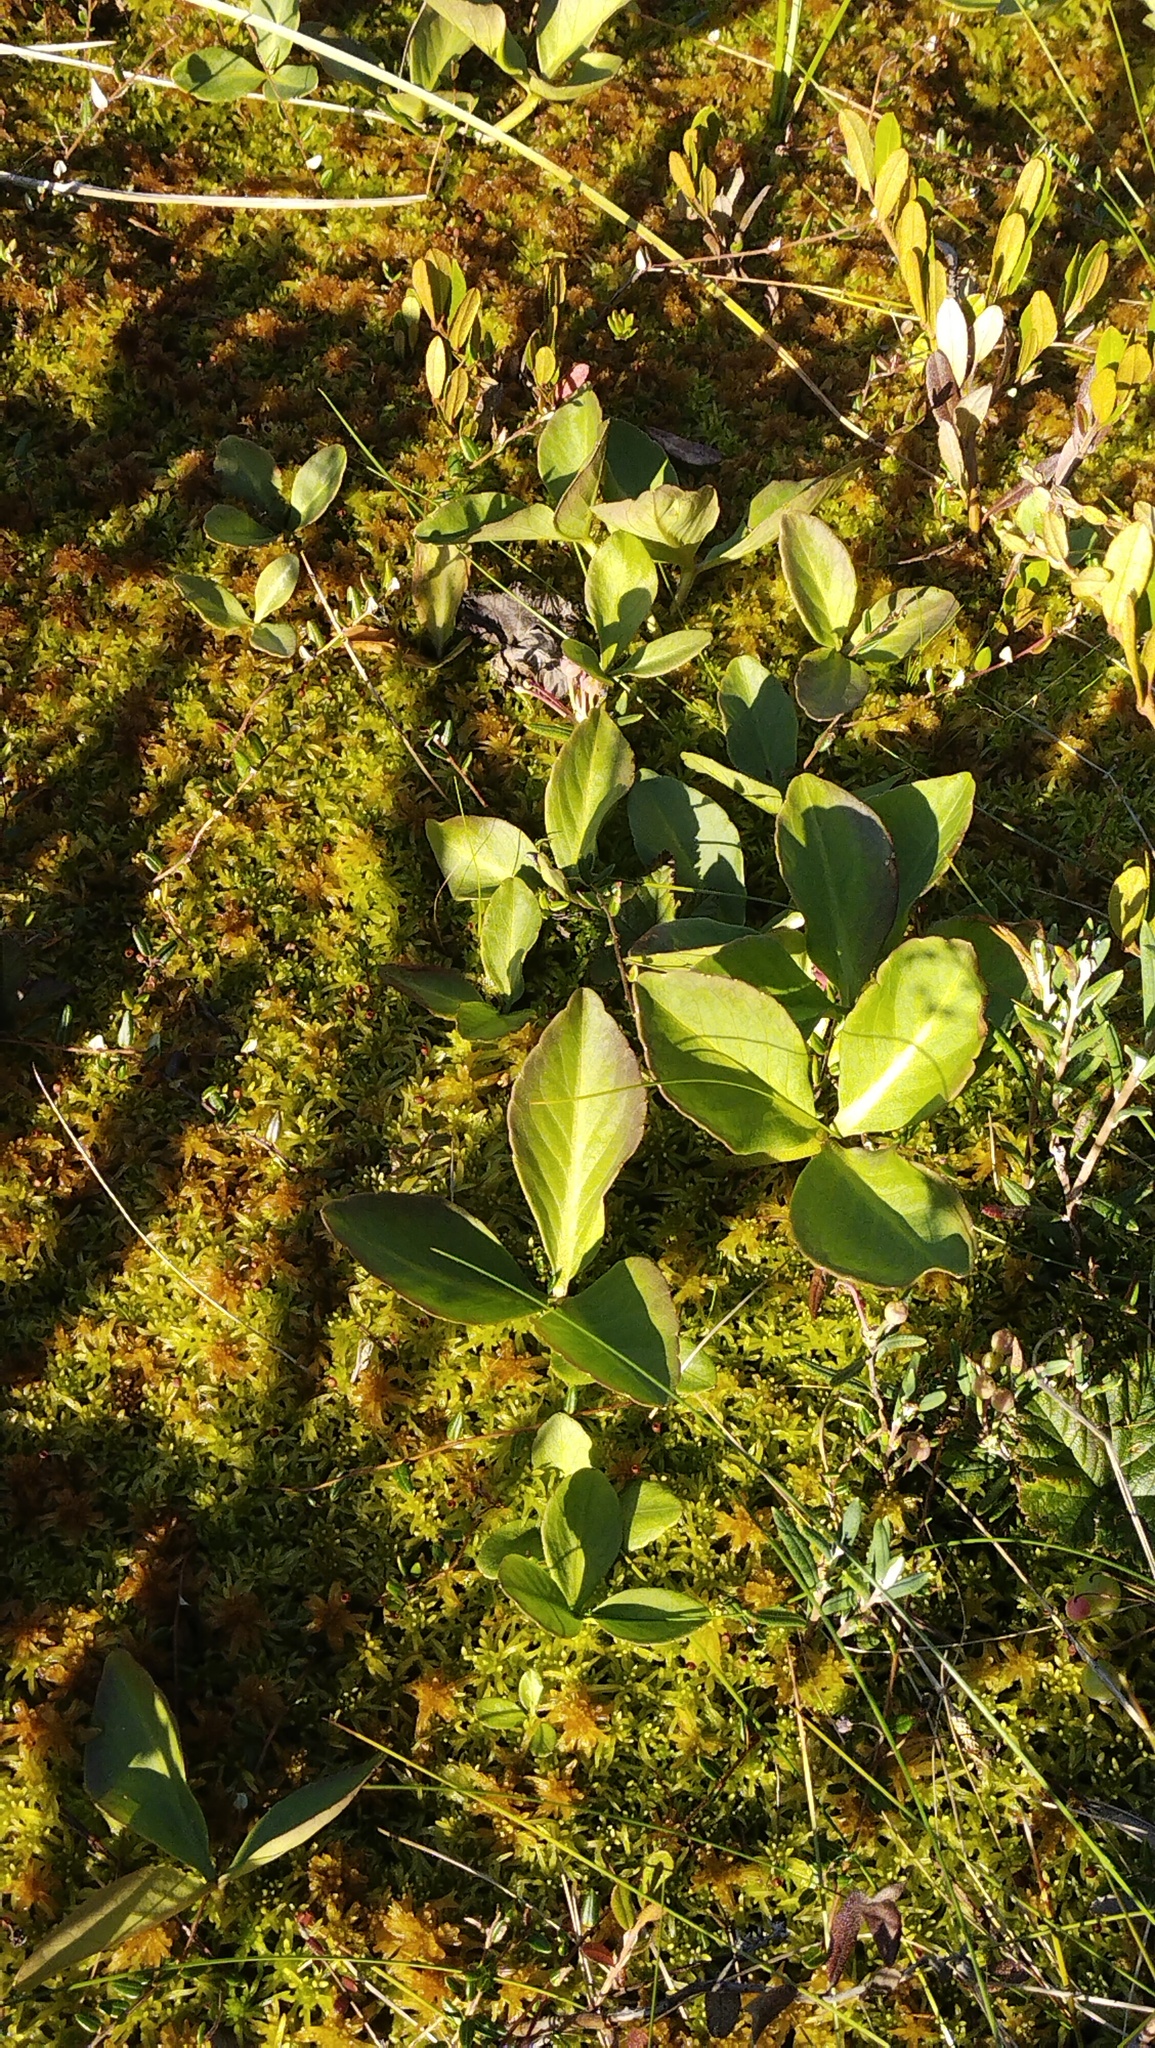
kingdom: Plantae
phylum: Tracheophyta
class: Magnoliopsida
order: Asterales
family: Menyanthaceae
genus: Menyanthes
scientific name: Menyanthes trifoliata
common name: Bogbean
